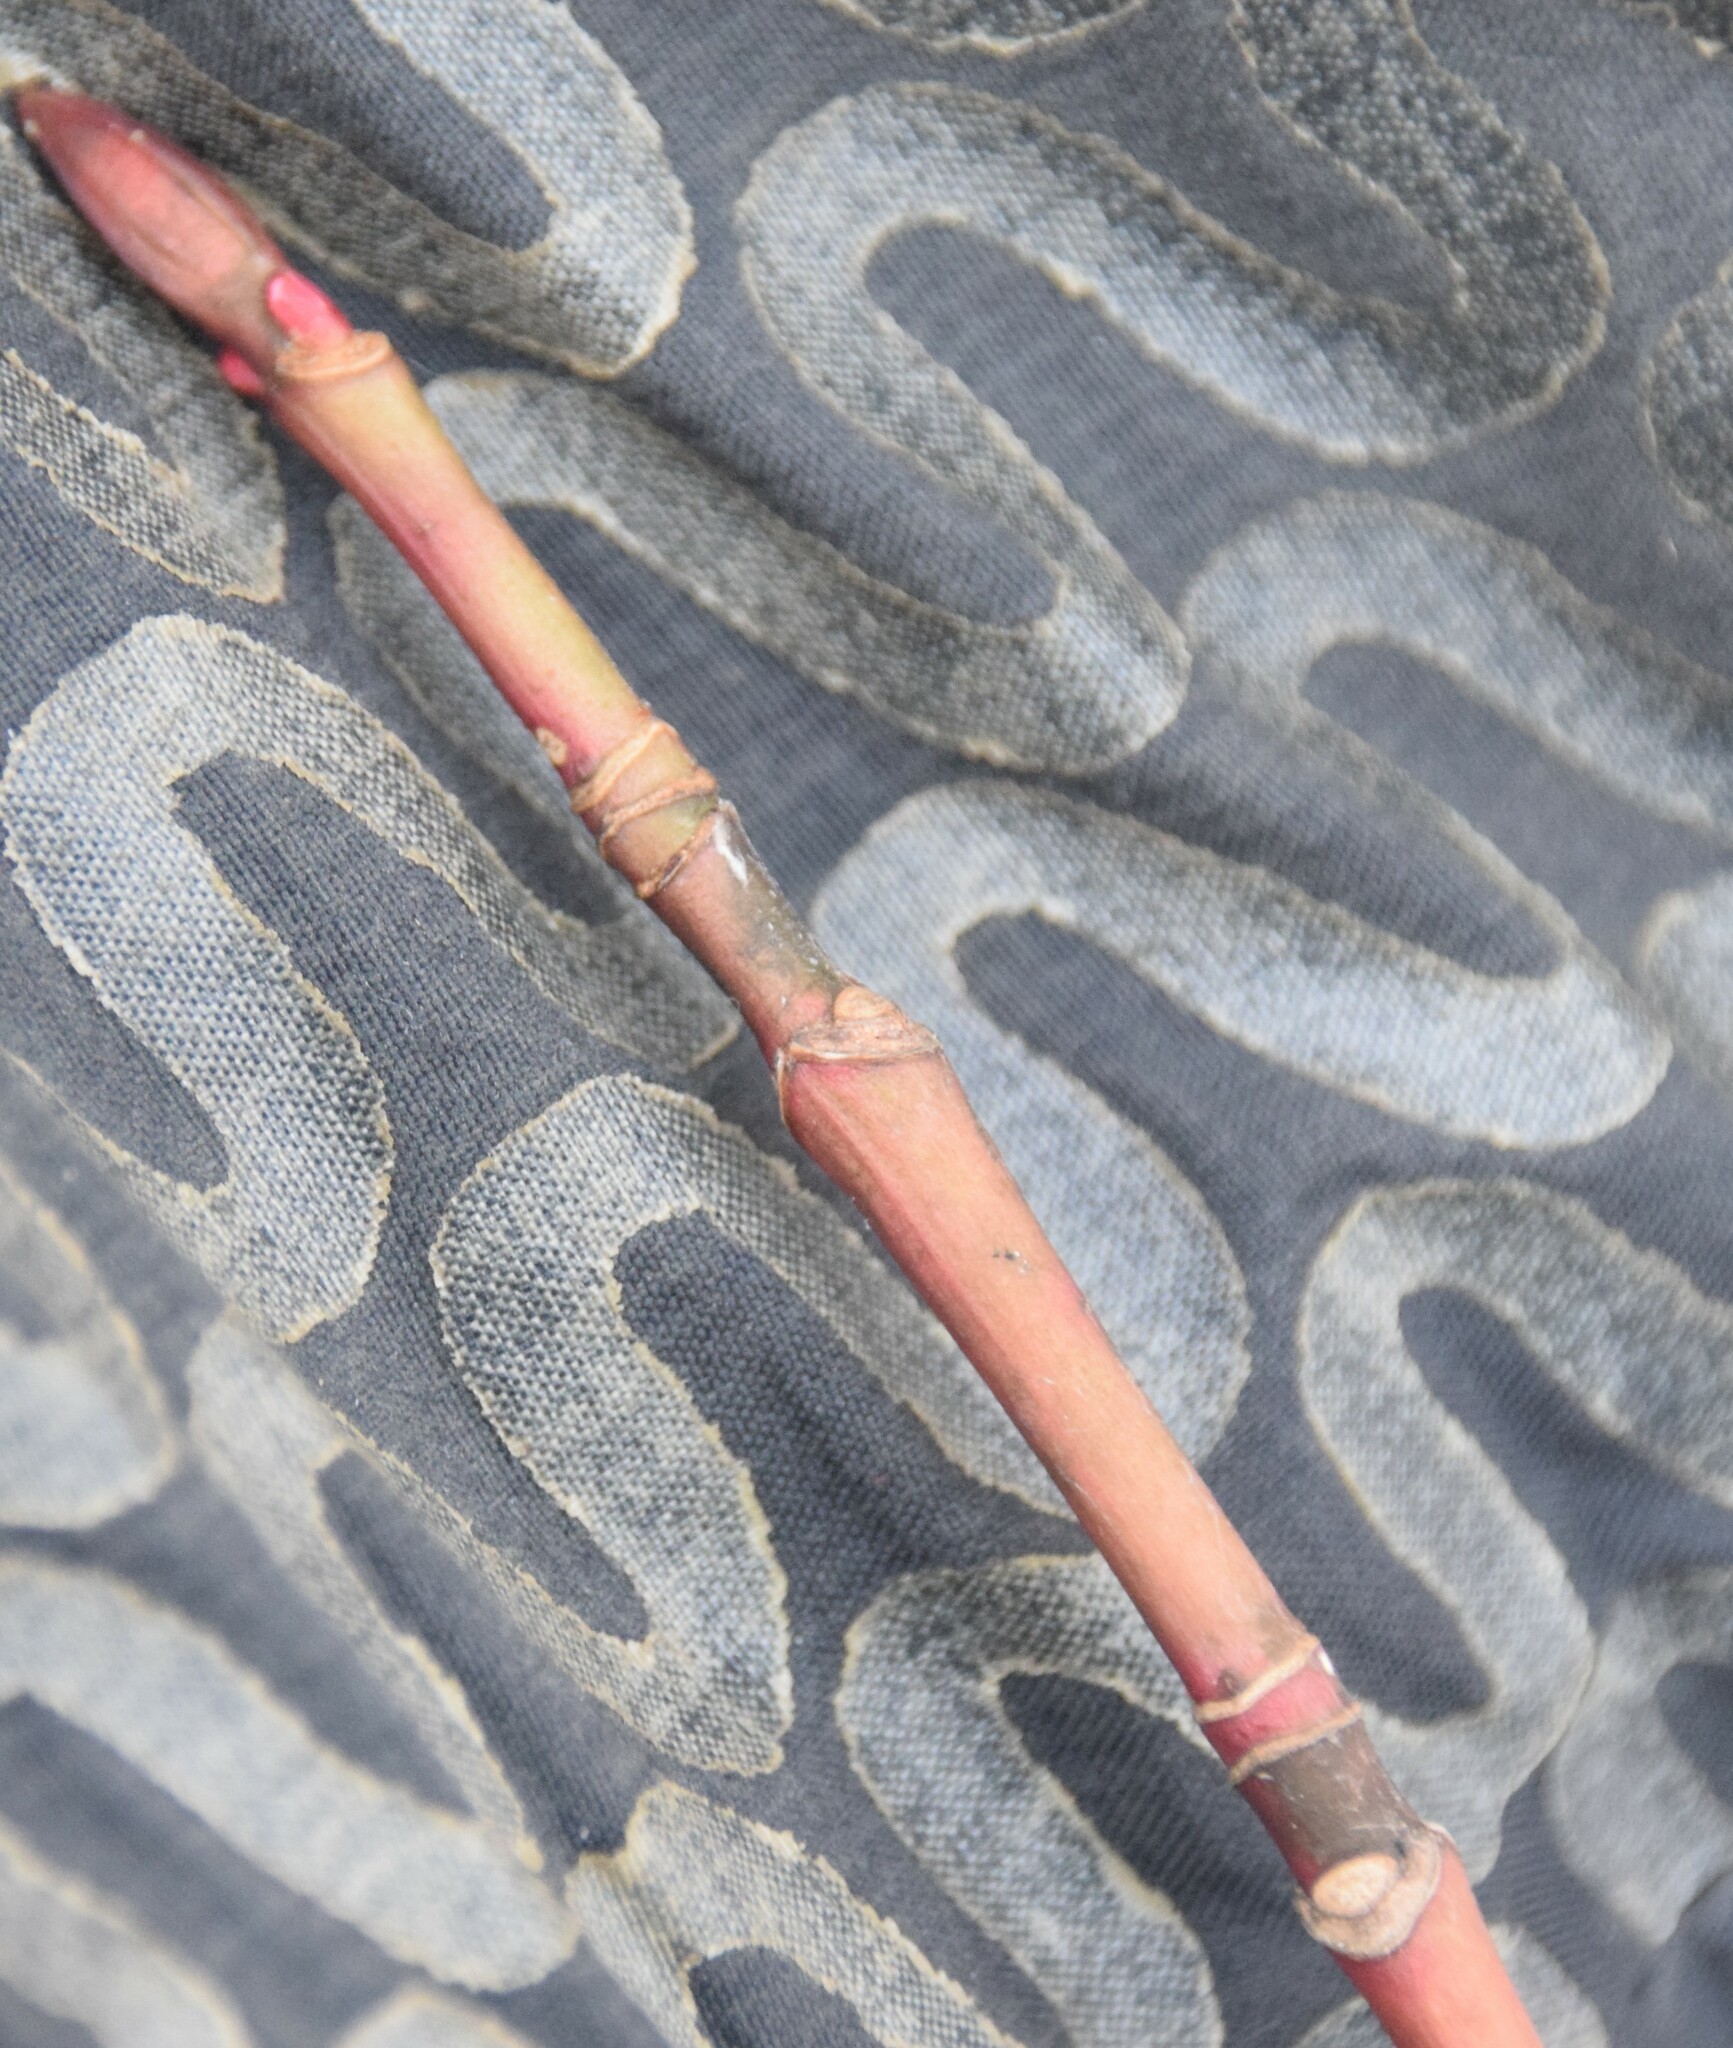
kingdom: Plantae
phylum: Tracheophyta
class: Magnoliopsida
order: Sapindales
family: Sapindaceae
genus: Acer
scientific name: Acer pensylvanicum
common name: Moosewood
